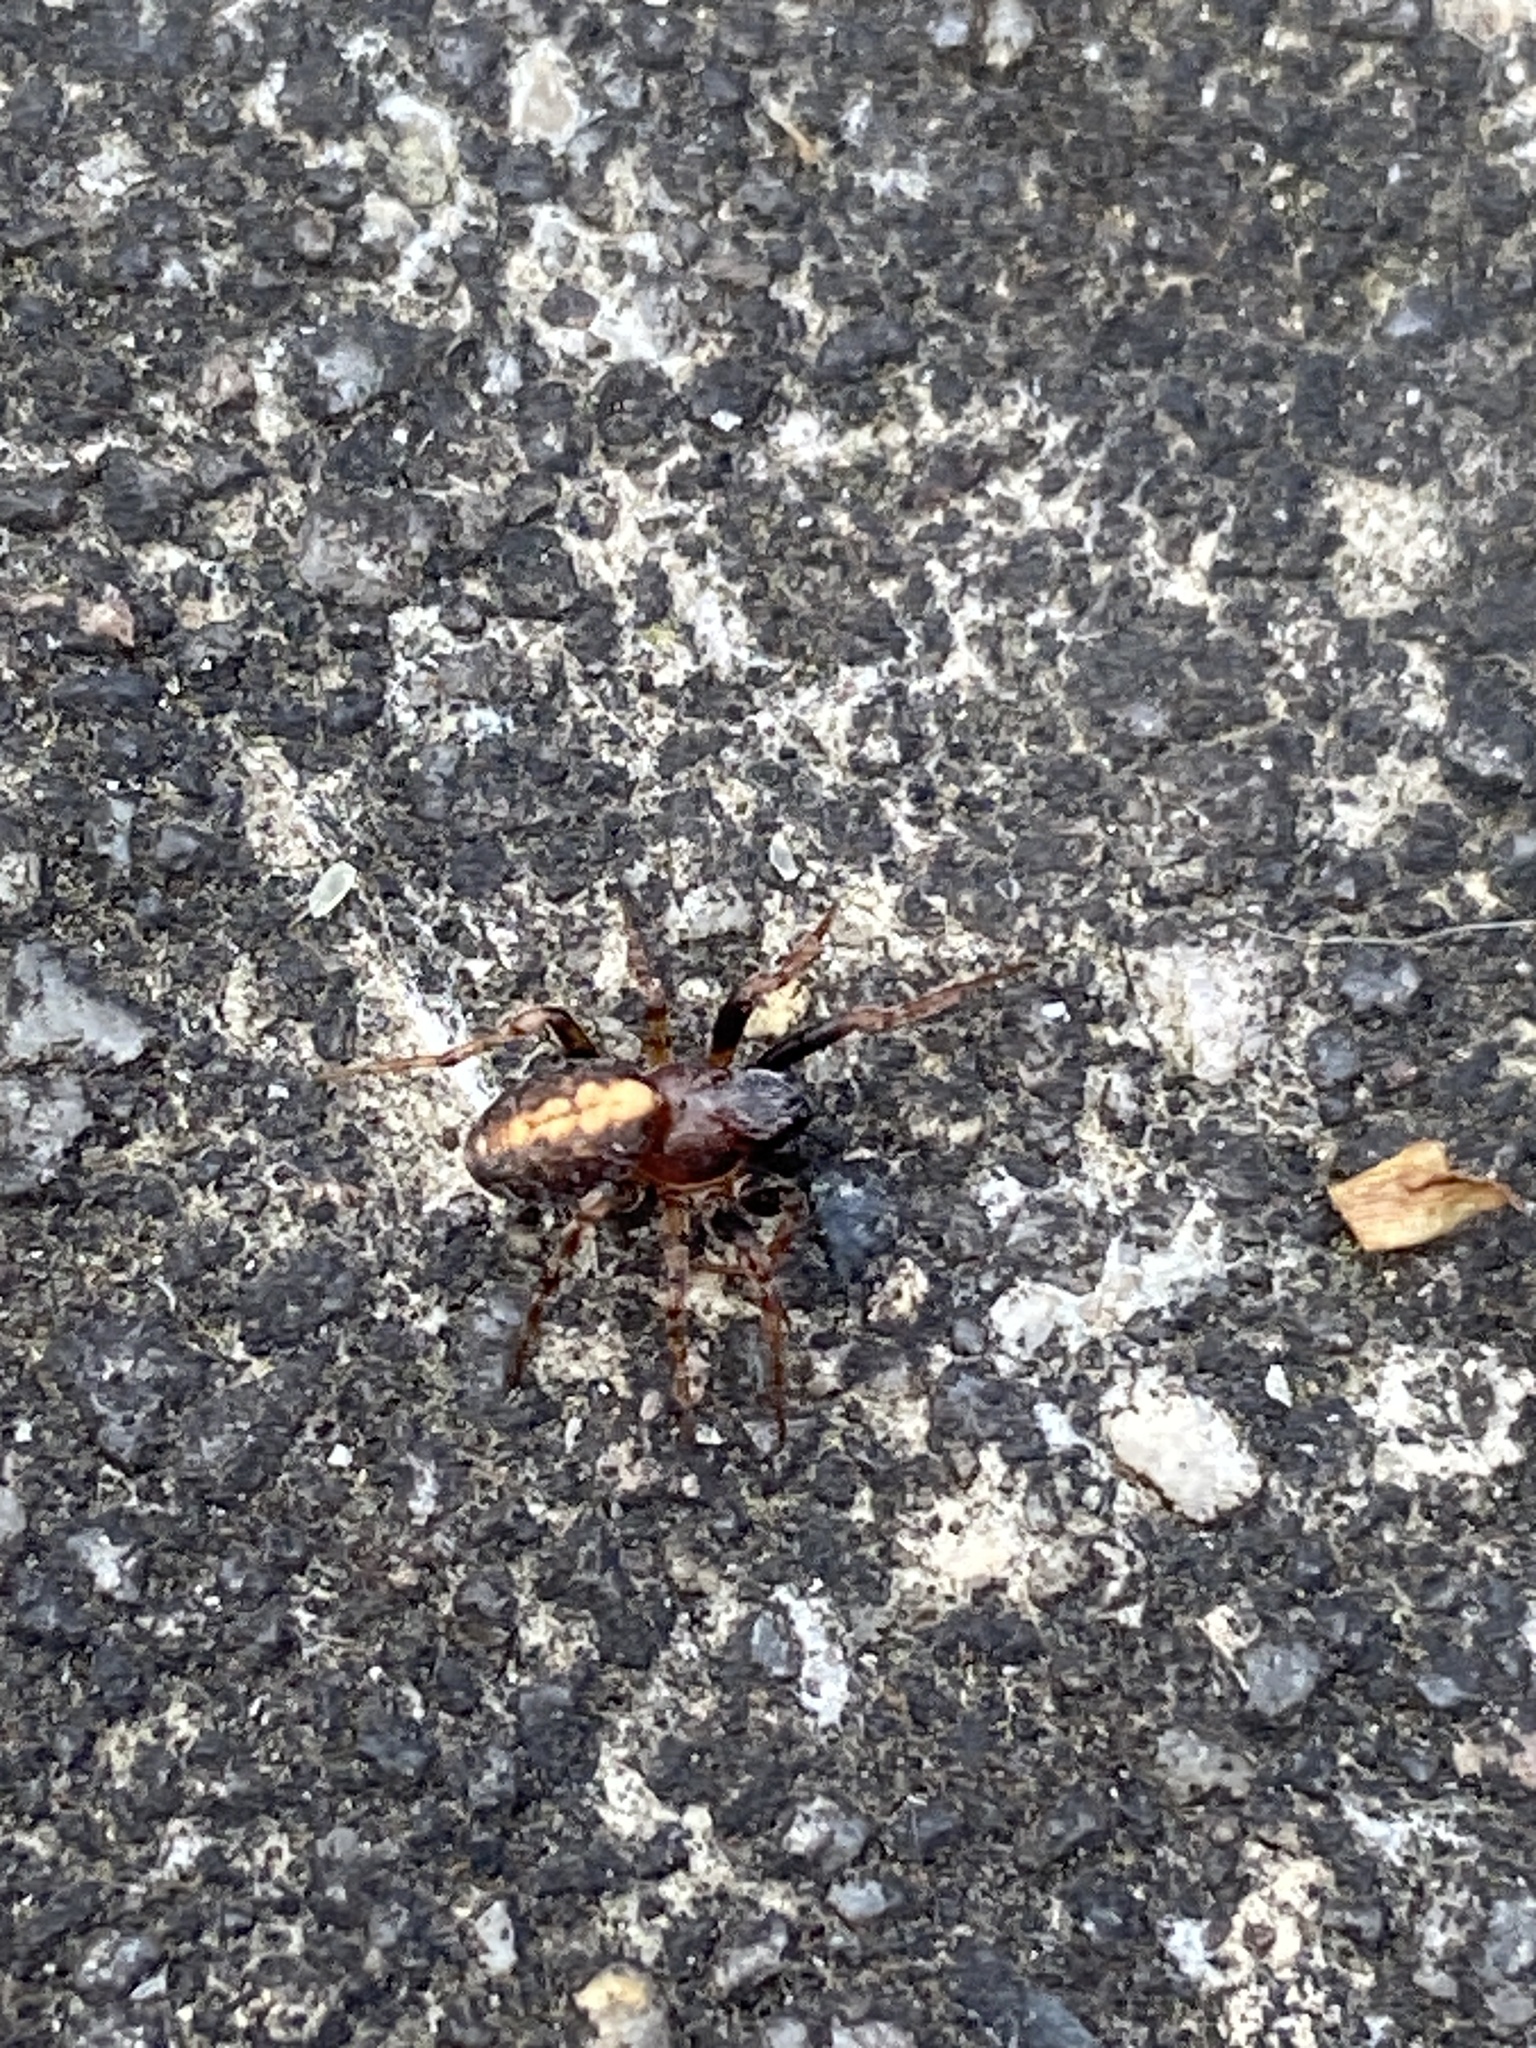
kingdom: Animalia
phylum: Arthropoda
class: Arachnida
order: Araneae
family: Araneidae
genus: Cercidia
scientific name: Cercidia prominens
